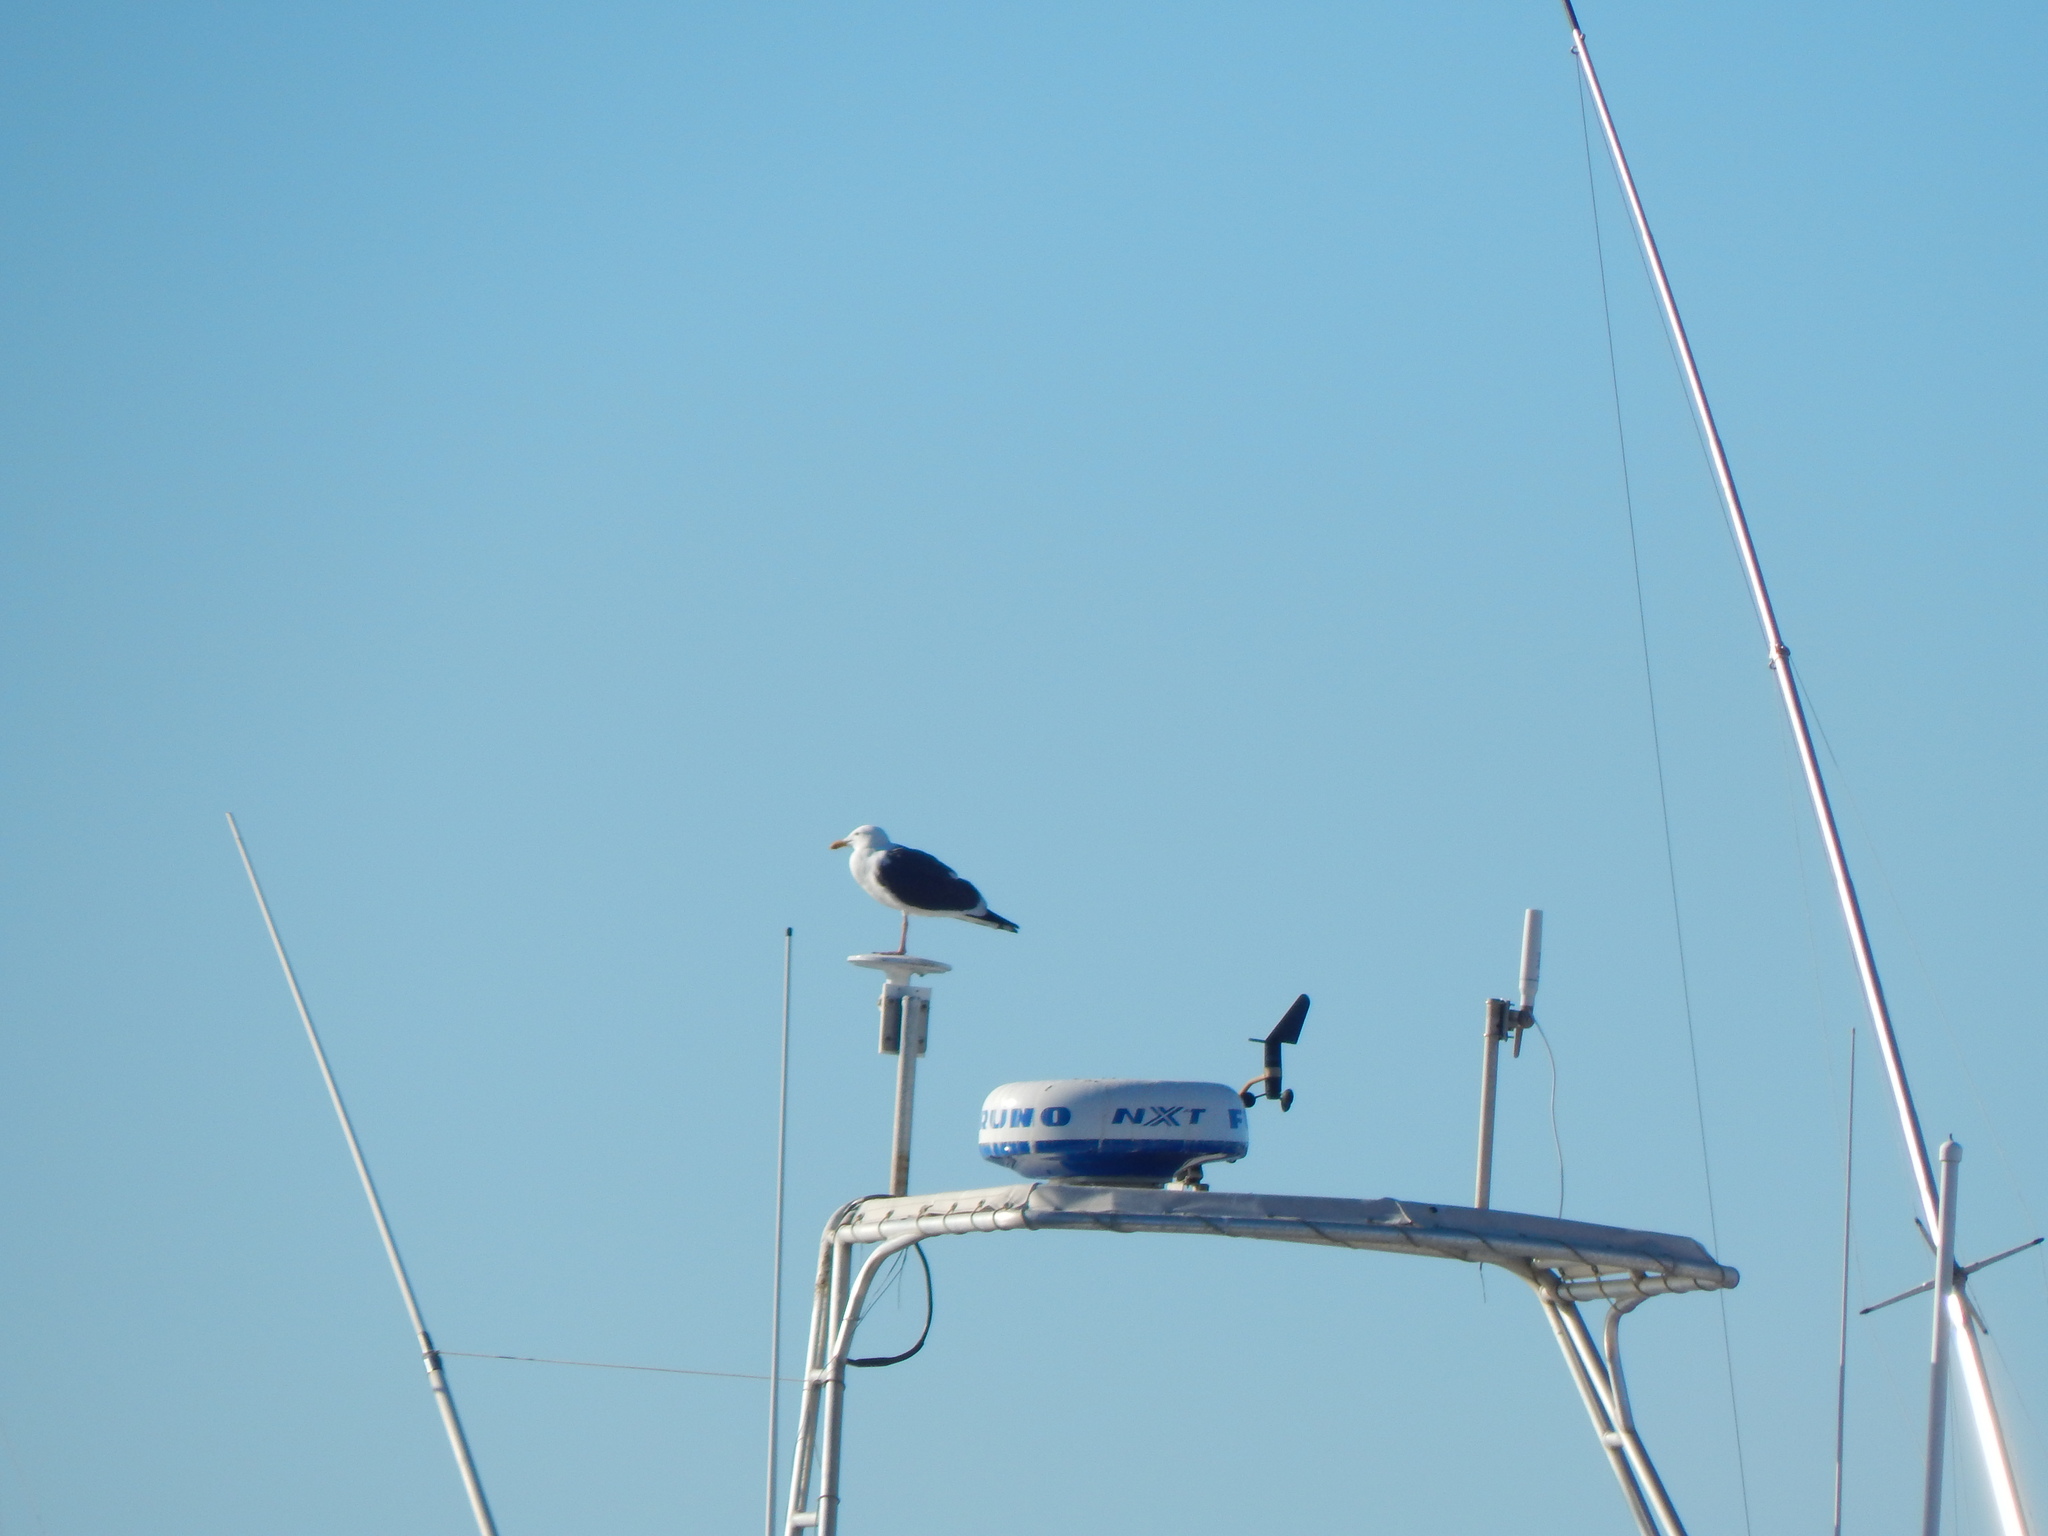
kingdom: Animalia
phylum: Chordata
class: Aves
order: Charadriiformes
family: Laridae
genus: Larus
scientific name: Larus occidentalis
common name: Western gull
